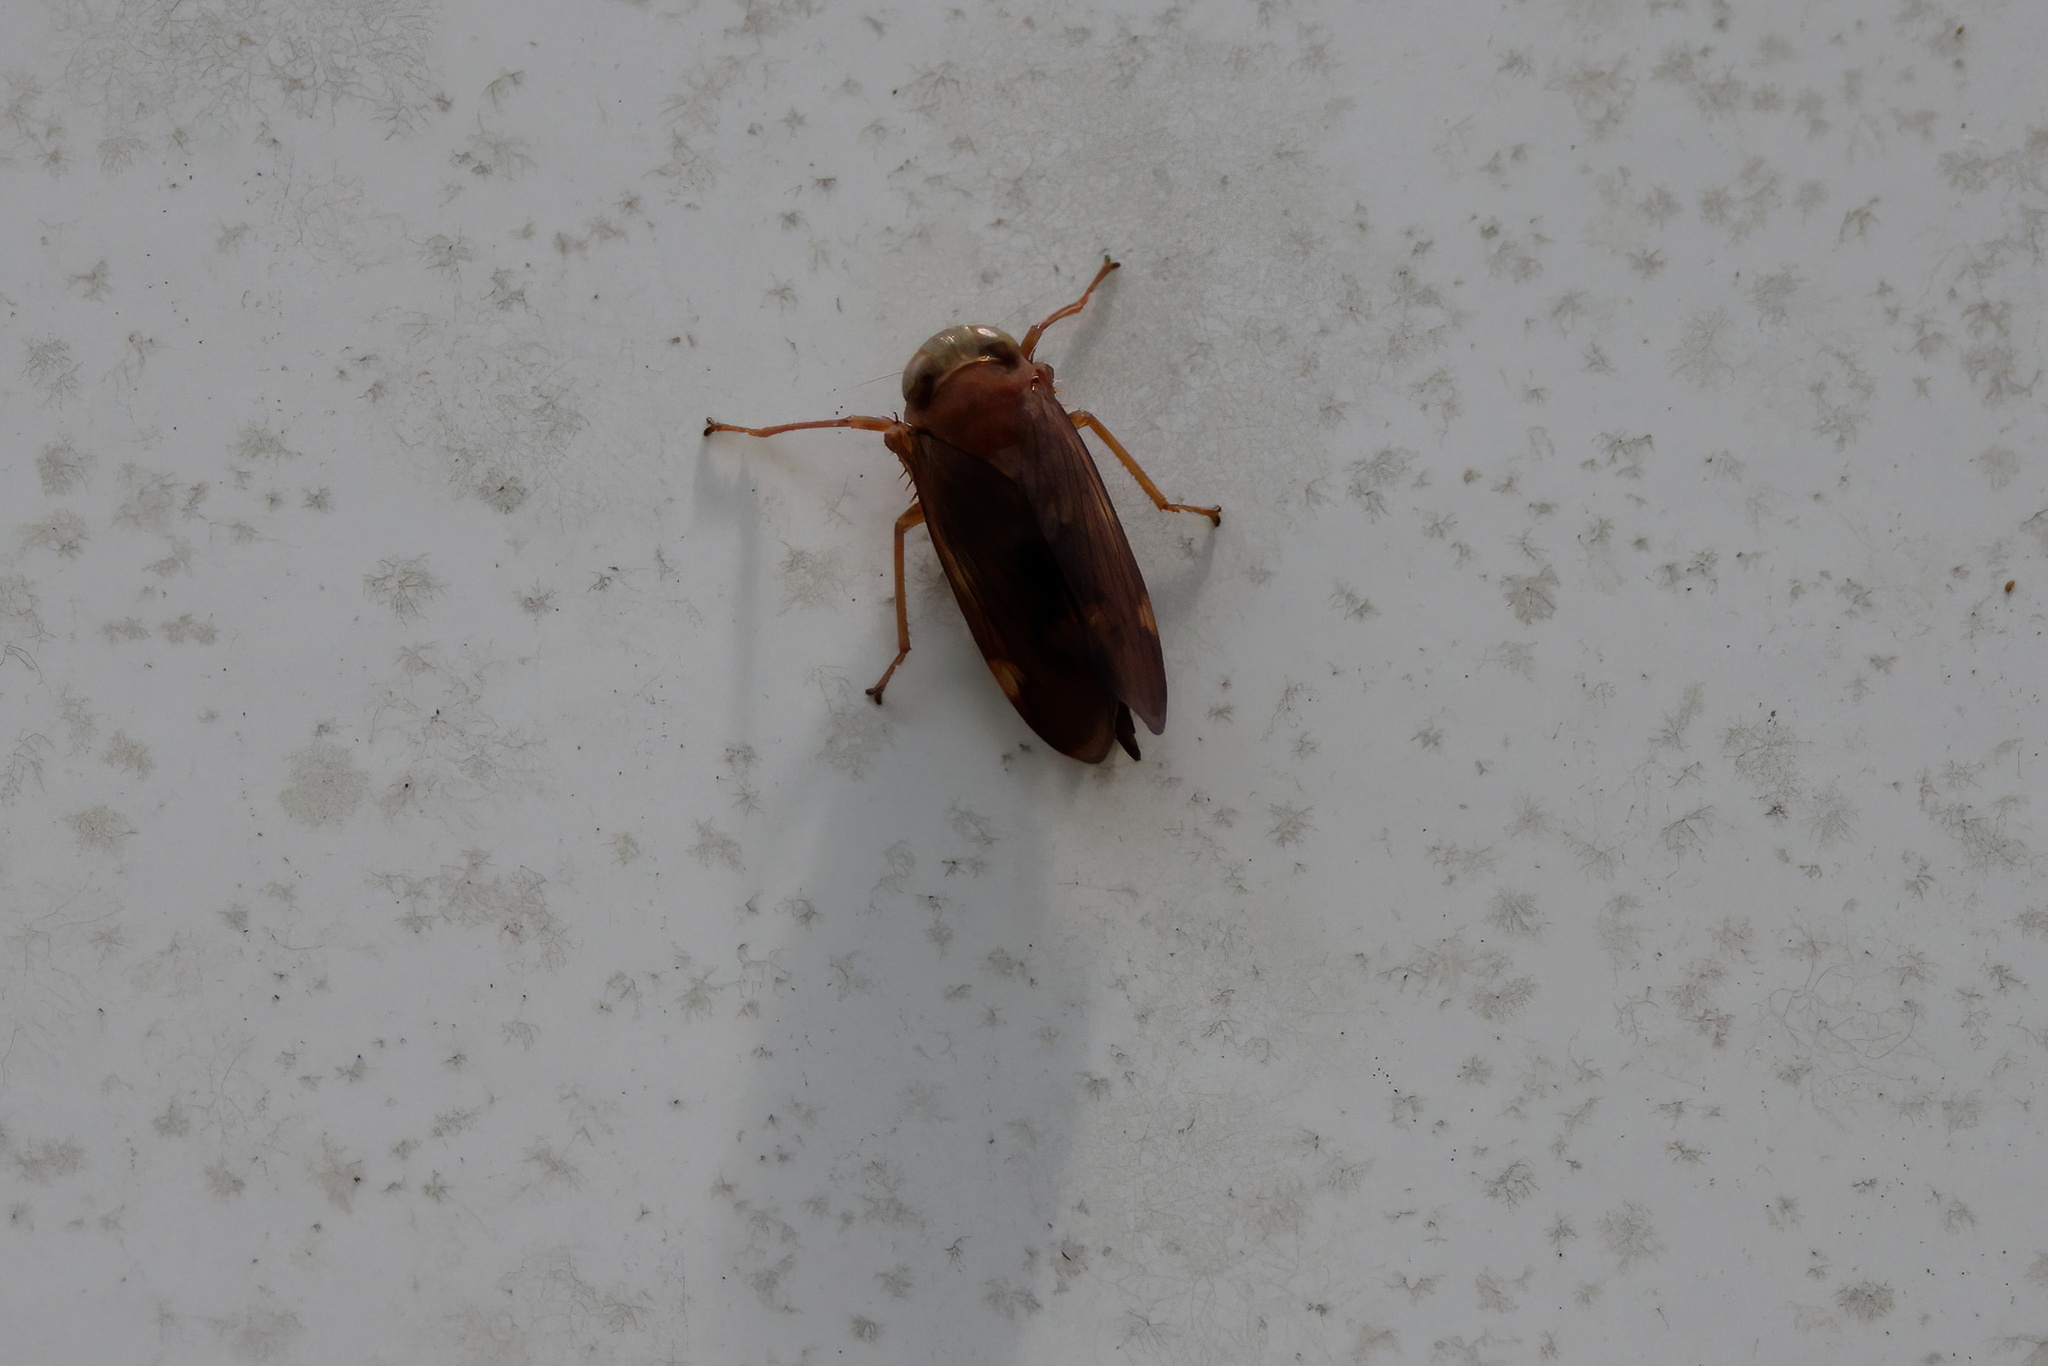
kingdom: Animalia
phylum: Arthropoda
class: Insecta
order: Hemiptera
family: Cicadellidae
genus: Jikradia
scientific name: Jikradia olitoria
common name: Coppery leafhopper
